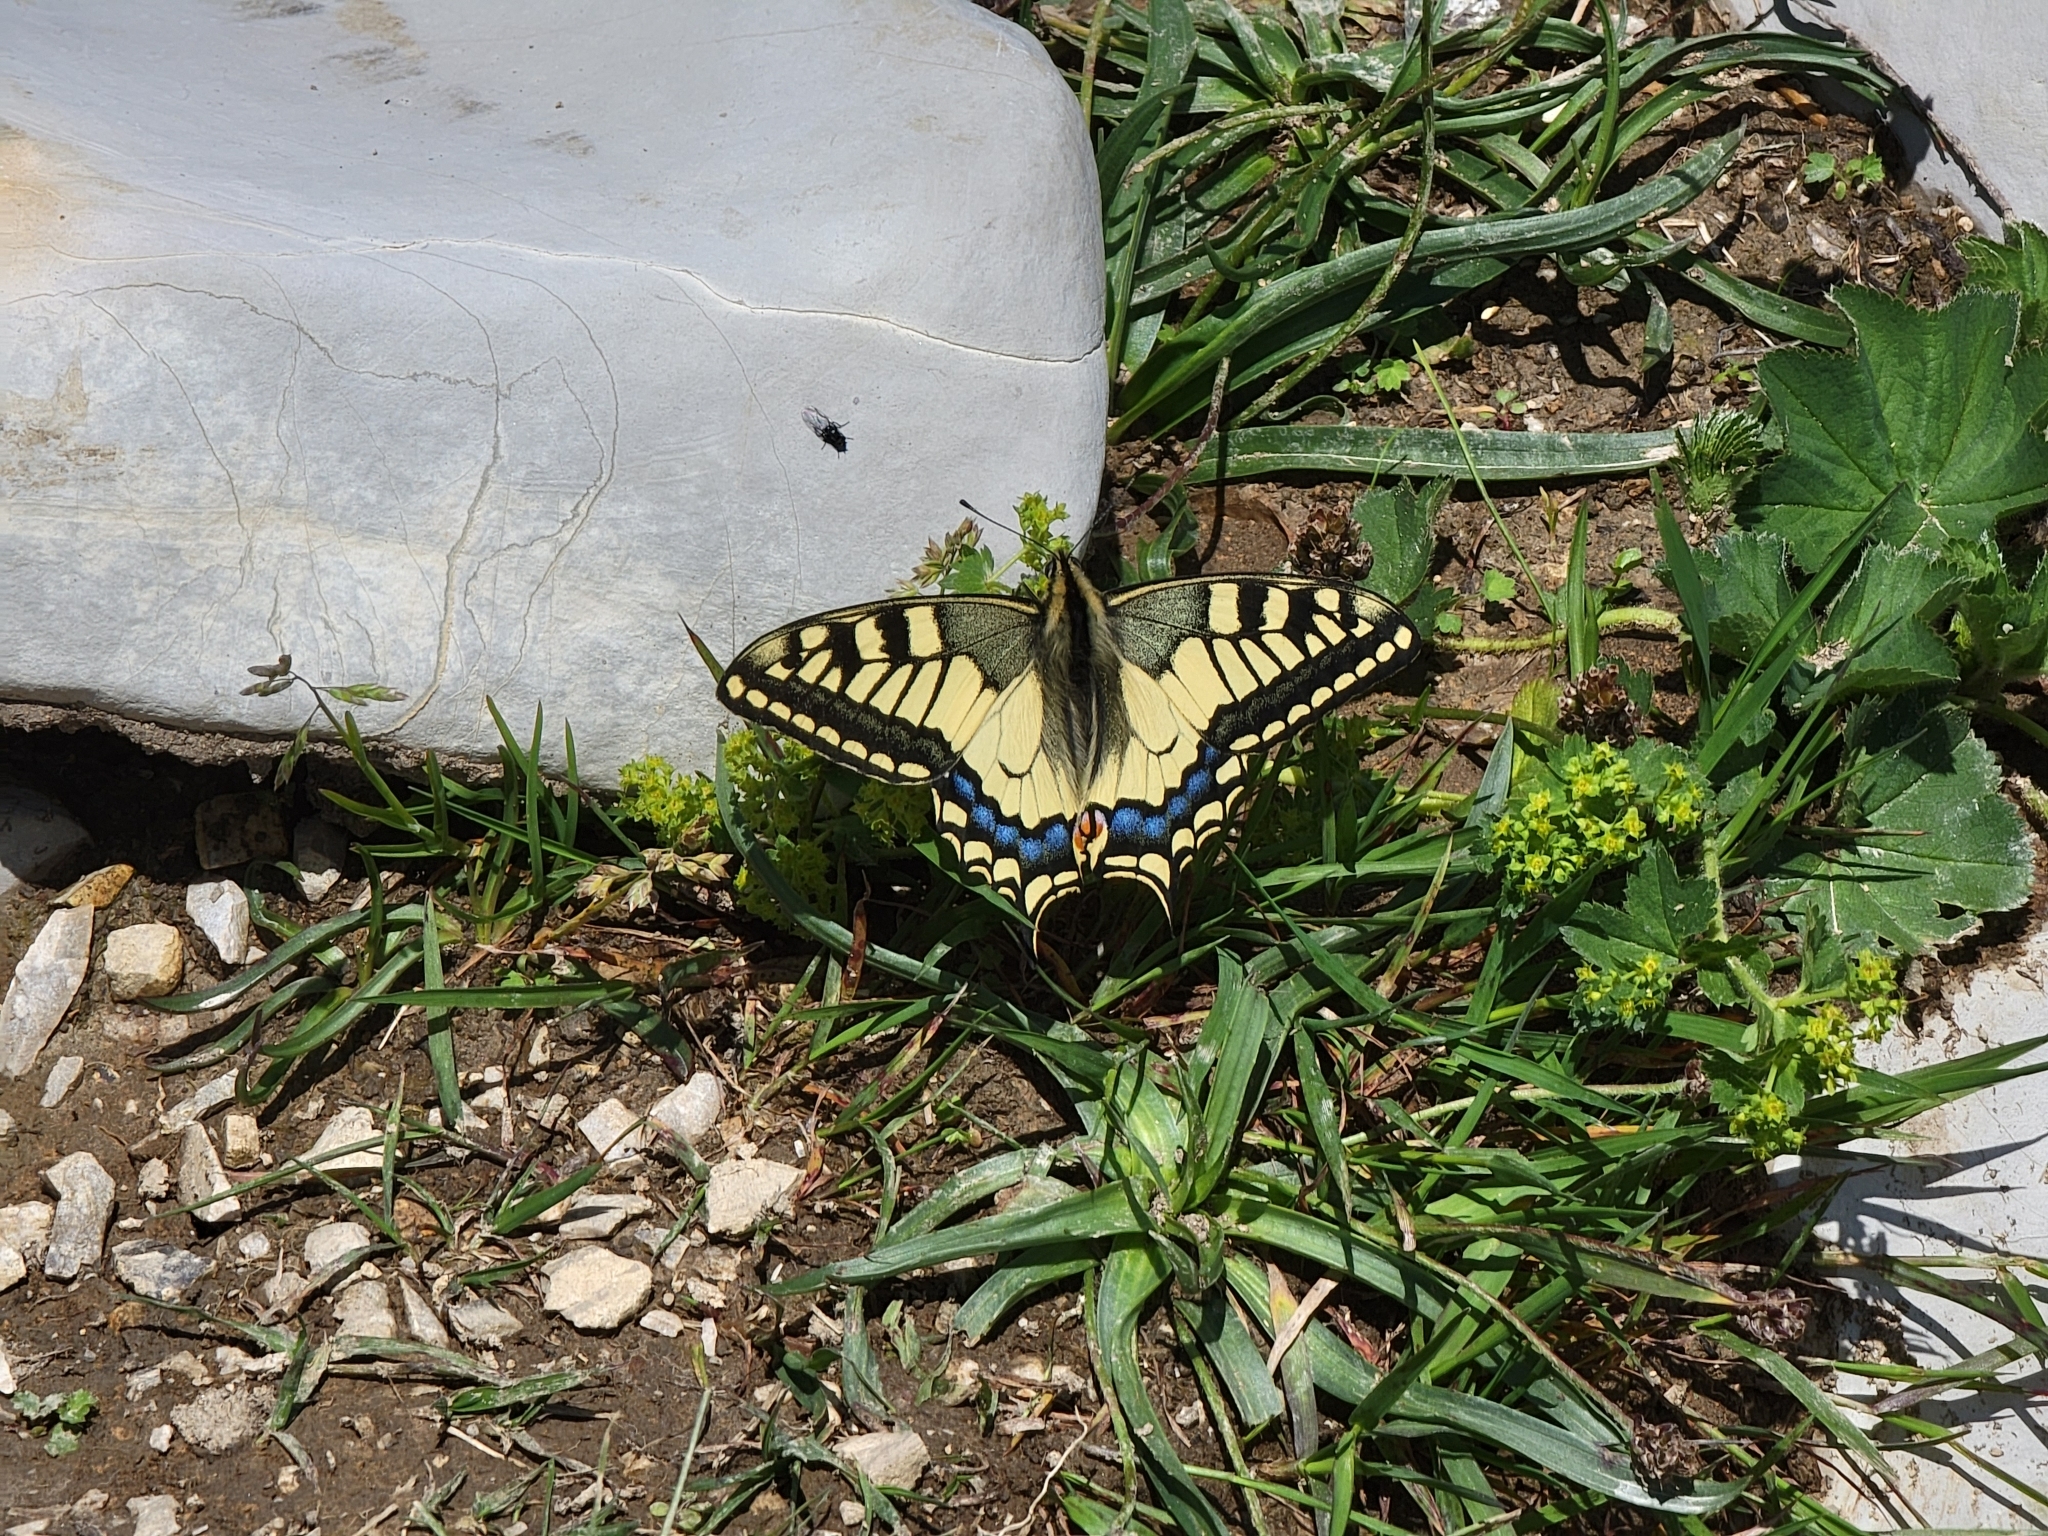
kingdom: Animalia
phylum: Arthropoda
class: Insecta
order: Lepidoptera
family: Papilionidae
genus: Papilio
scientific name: Papilio machaon
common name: Swallowtail
